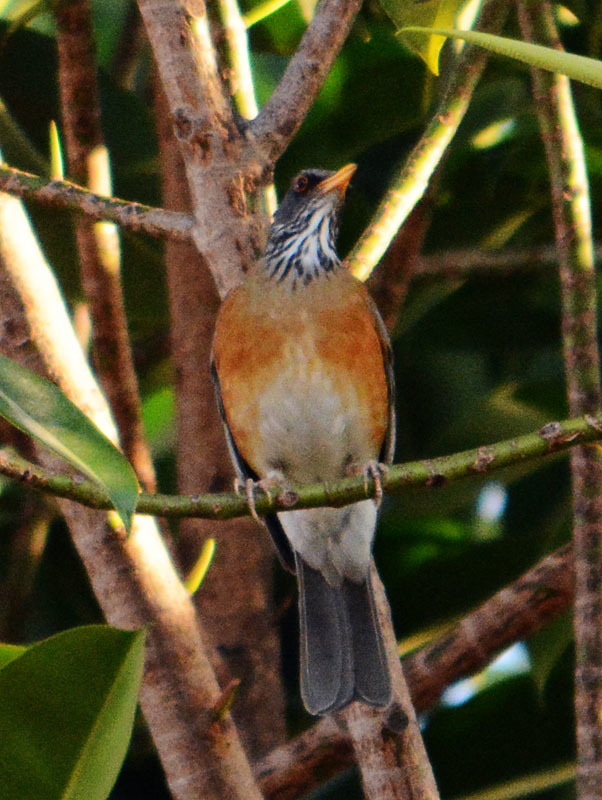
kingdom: Animalia
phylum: Chordata
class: Aves
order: Passeriformes
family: Turdidae
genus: Turdus
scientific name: Turdus rufopalliatus
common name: Rufous-backed robin
